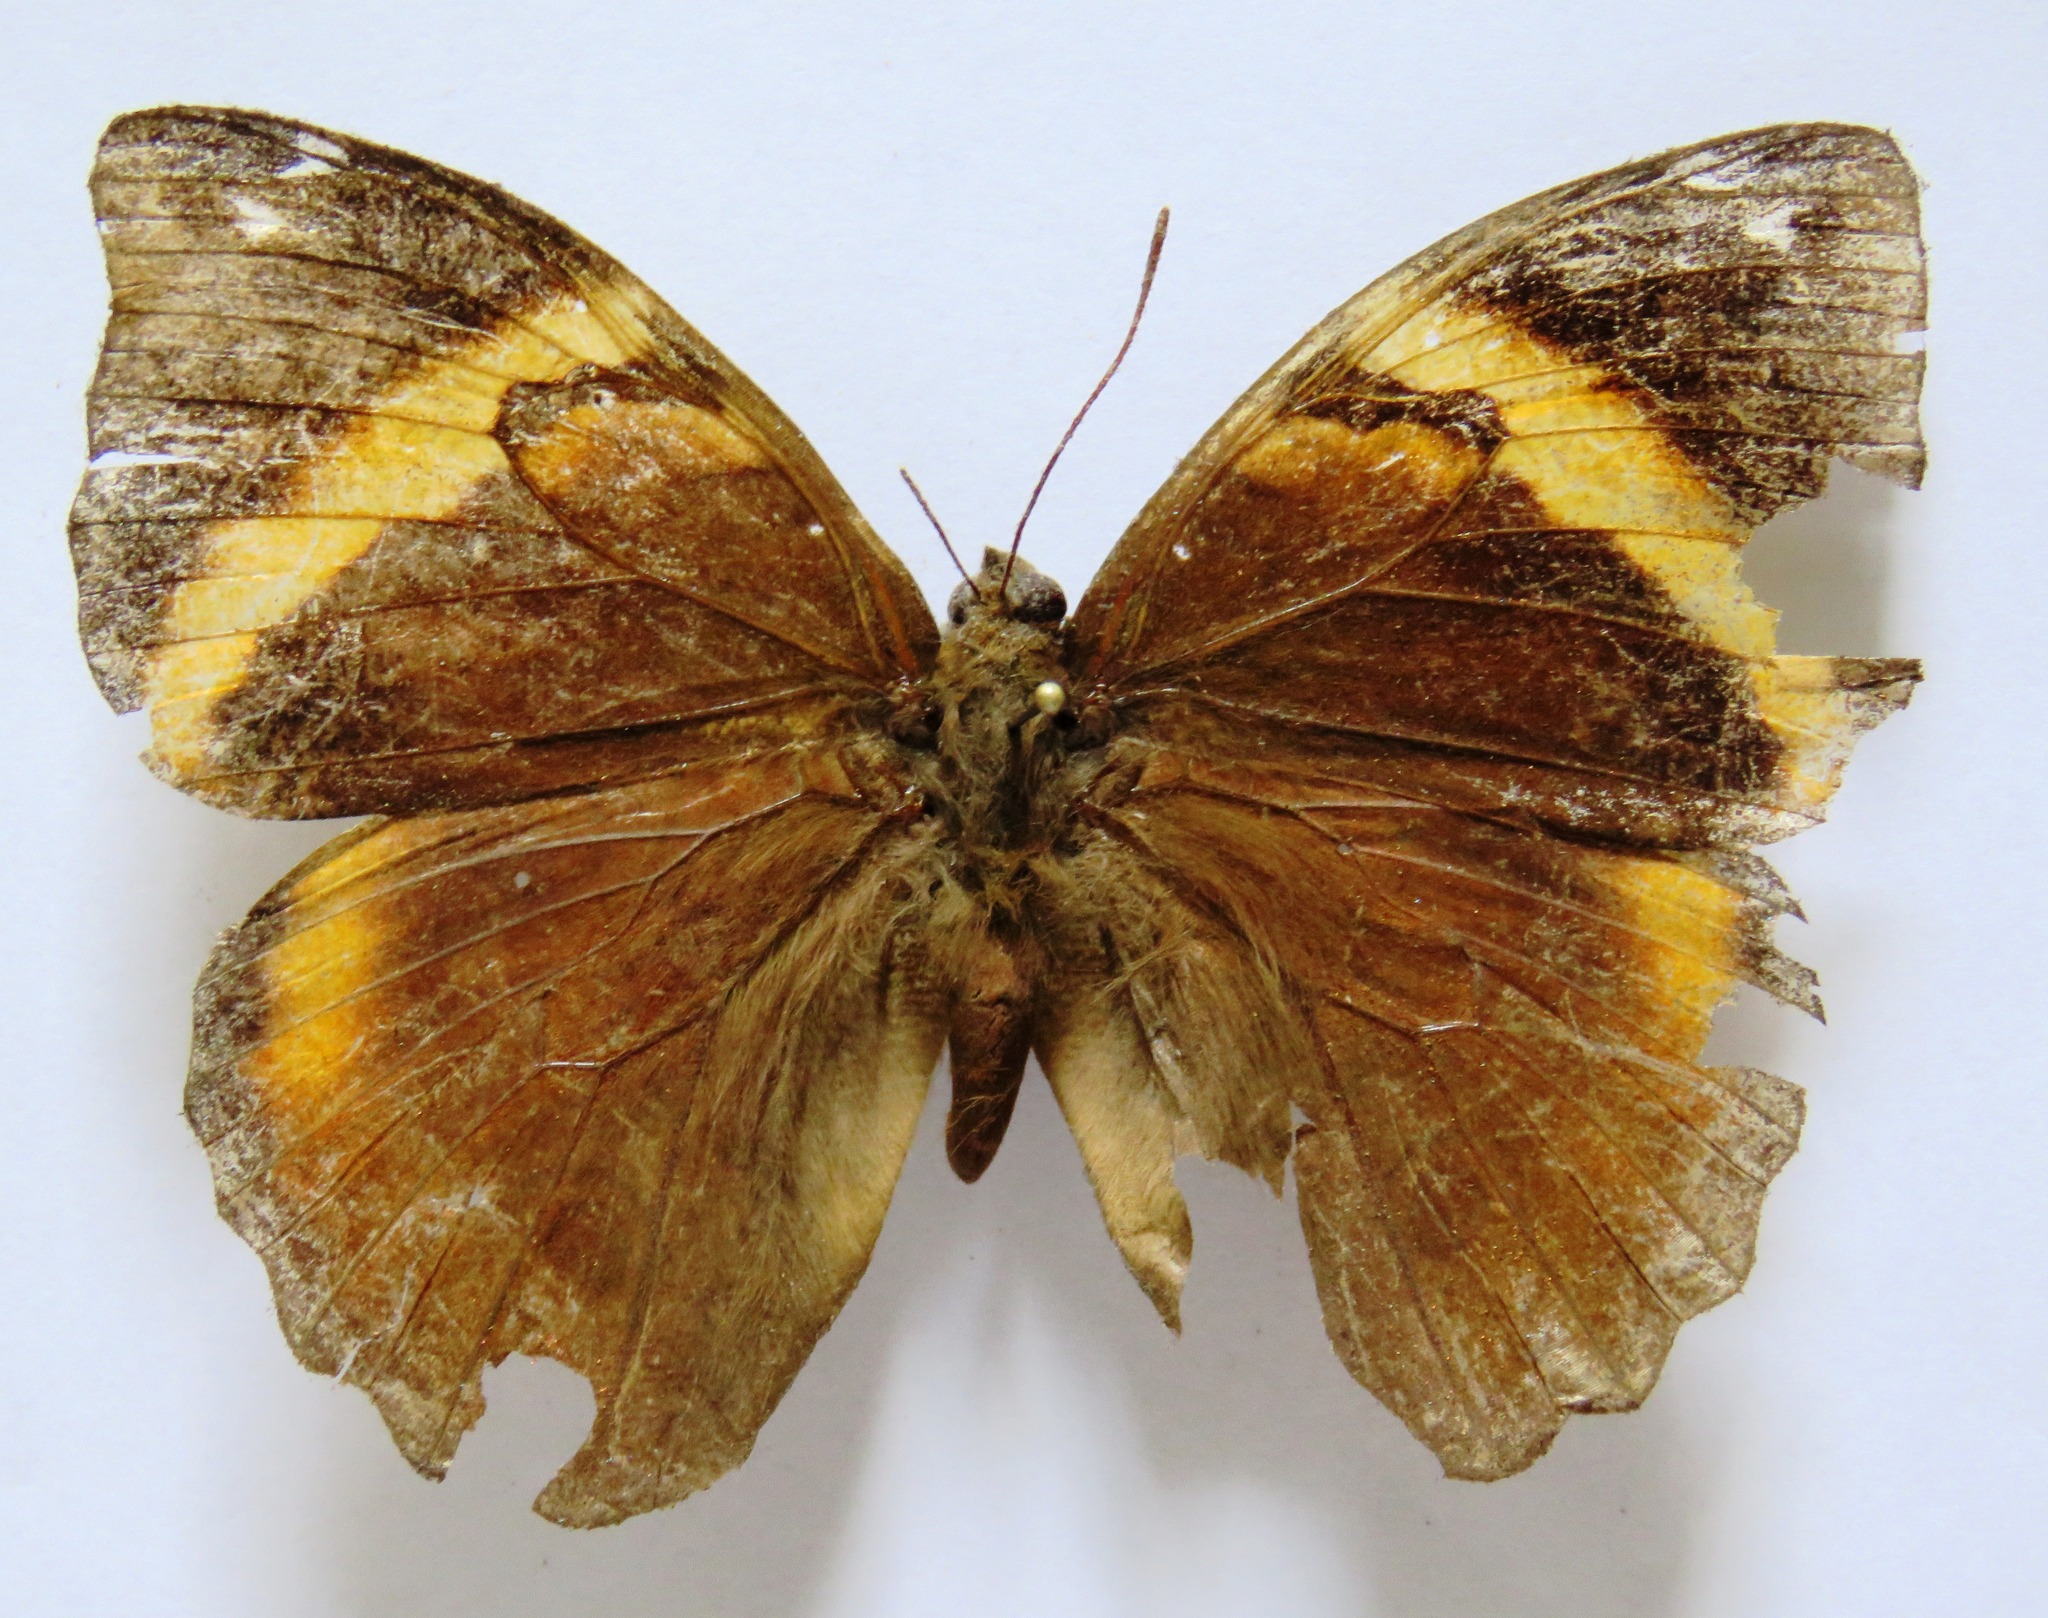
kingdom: Animalia
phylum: Arthropoda
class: Insecta
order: Lepidoptera
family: Nymphalidae
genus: Opsiphanes
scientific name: Opsiphanes fabricii
